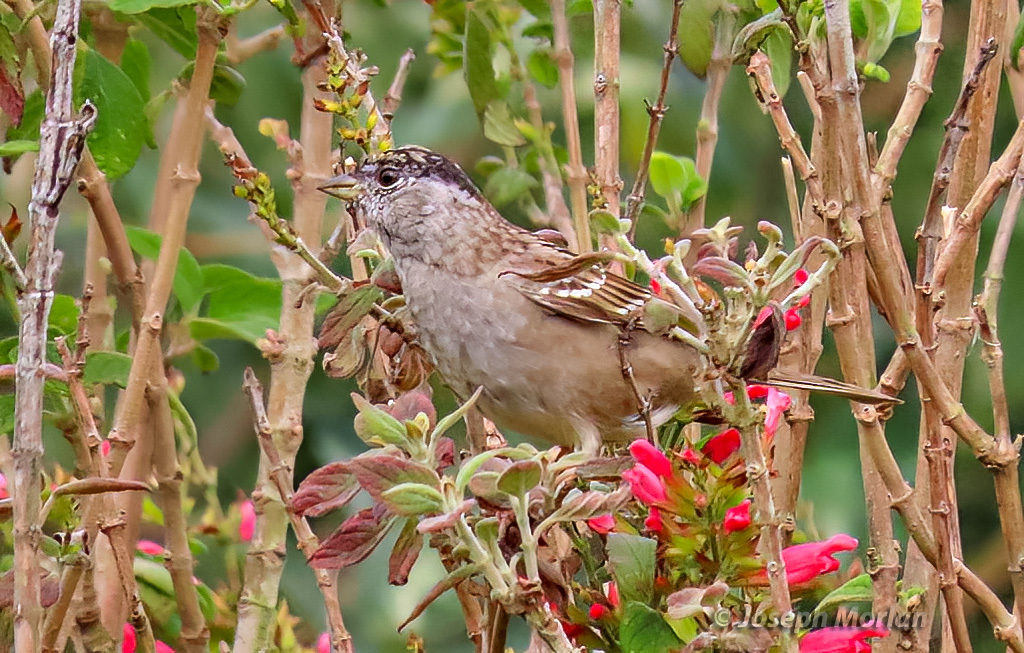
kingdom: Animalia
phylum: Chordata
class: Aves
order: Passeriformes
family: Passerellidae
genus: Zonotrichia
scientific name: Zonotrichia atricapilla
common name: Golden-crowned sparrow
